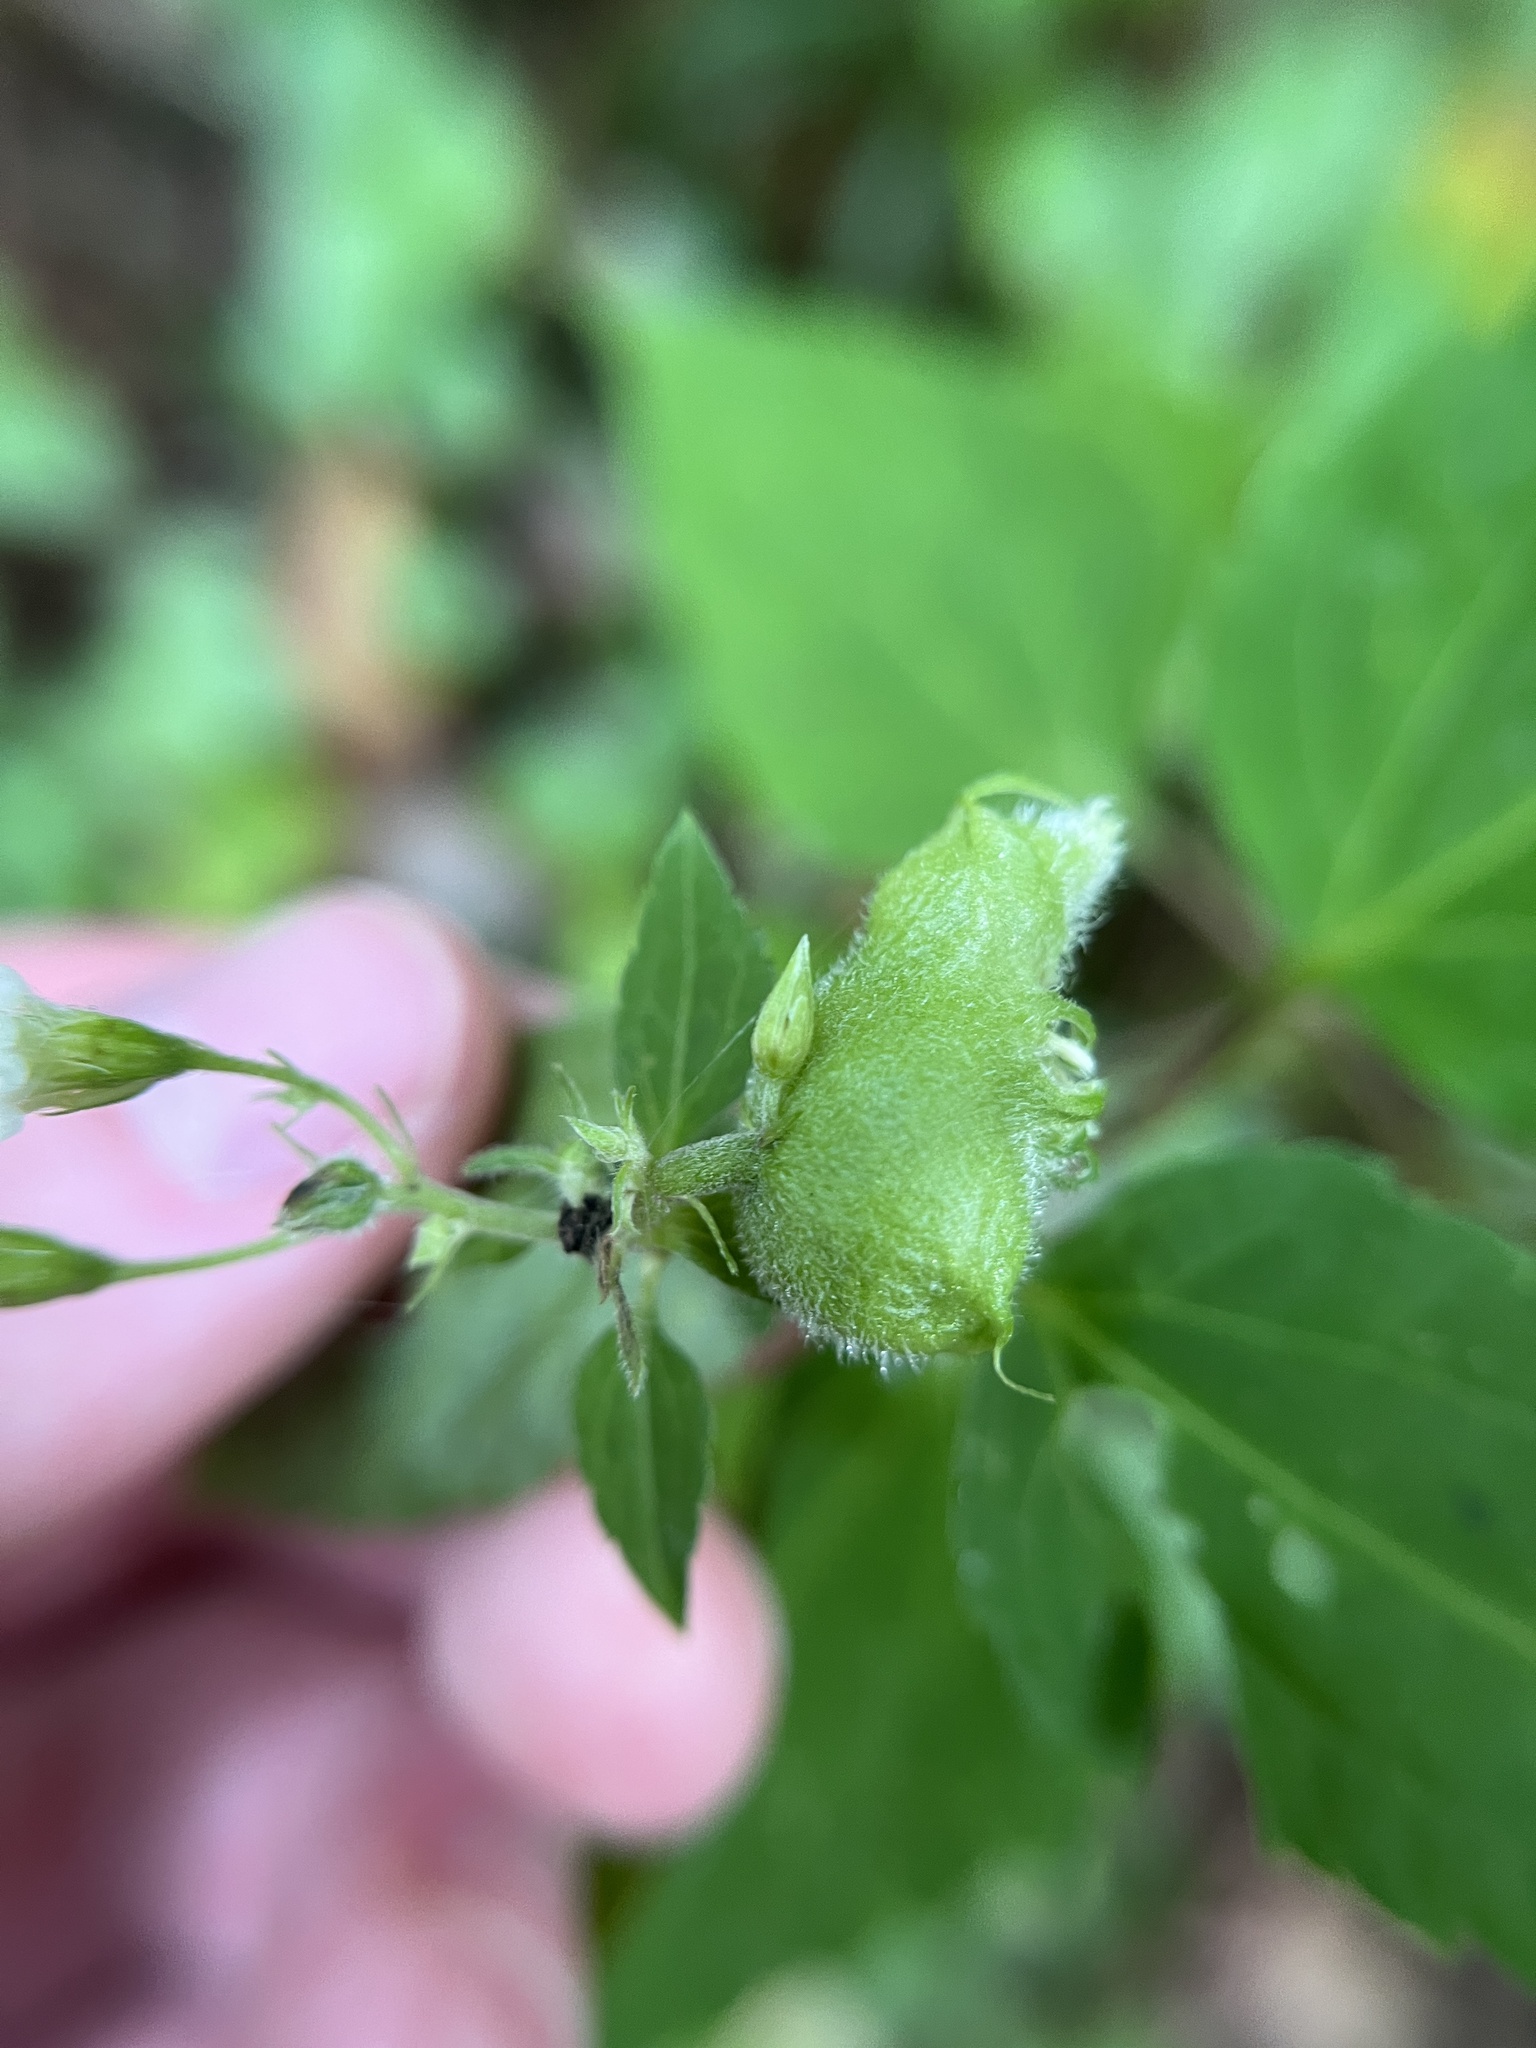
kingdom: Animalia
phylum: Arthropoda
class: Insecta
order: Diptera
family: Cecidomyiidae
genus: Schizomyia
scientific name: Schizomyia eupatoriflorae
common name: Boneset flower gall midge
